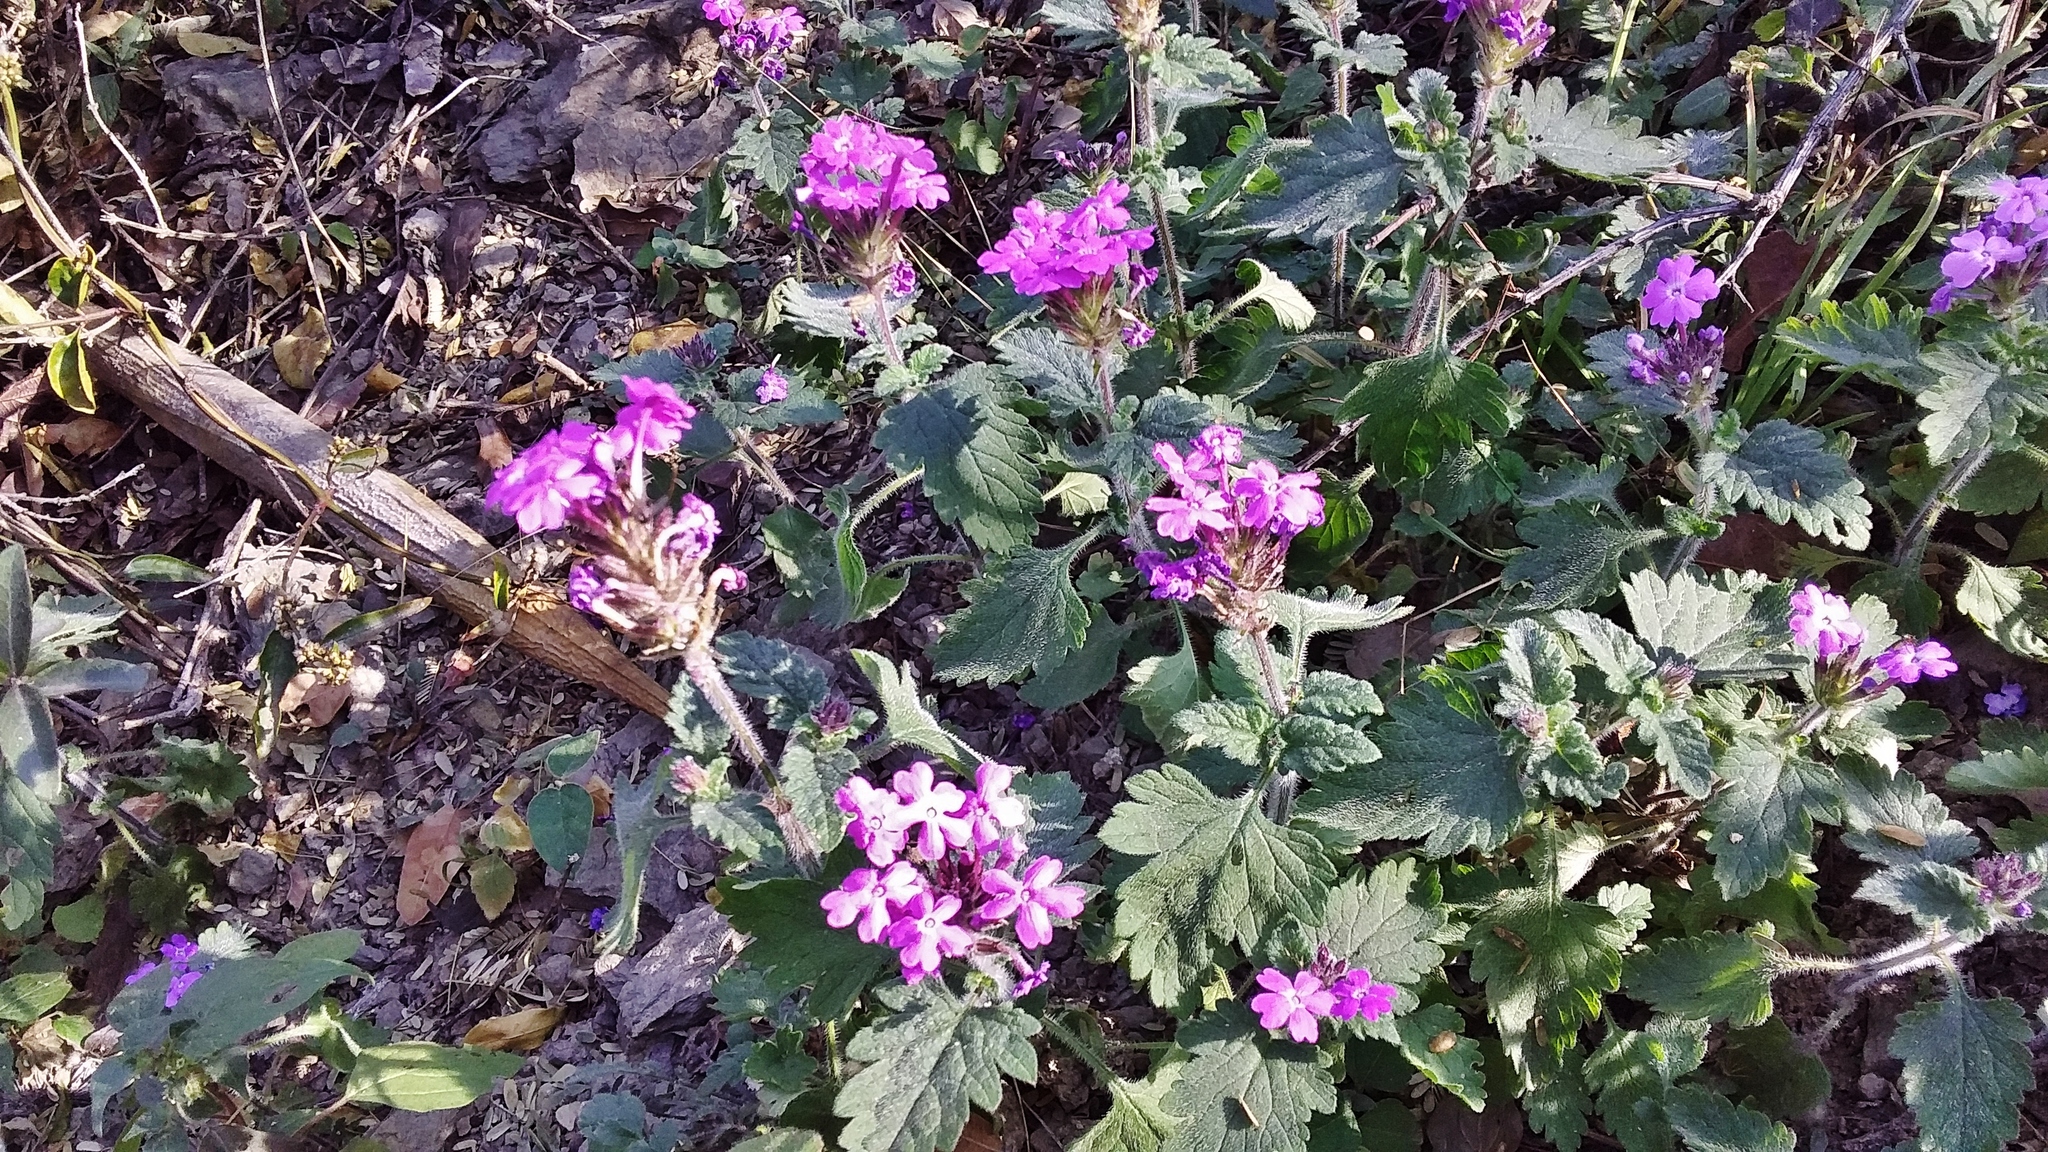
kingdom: Plantae
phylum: Tracheophyta
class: Magnoliopsida
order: Lamiales
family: Verbenaceae
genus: Verbena
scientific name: Verbena canadensis
